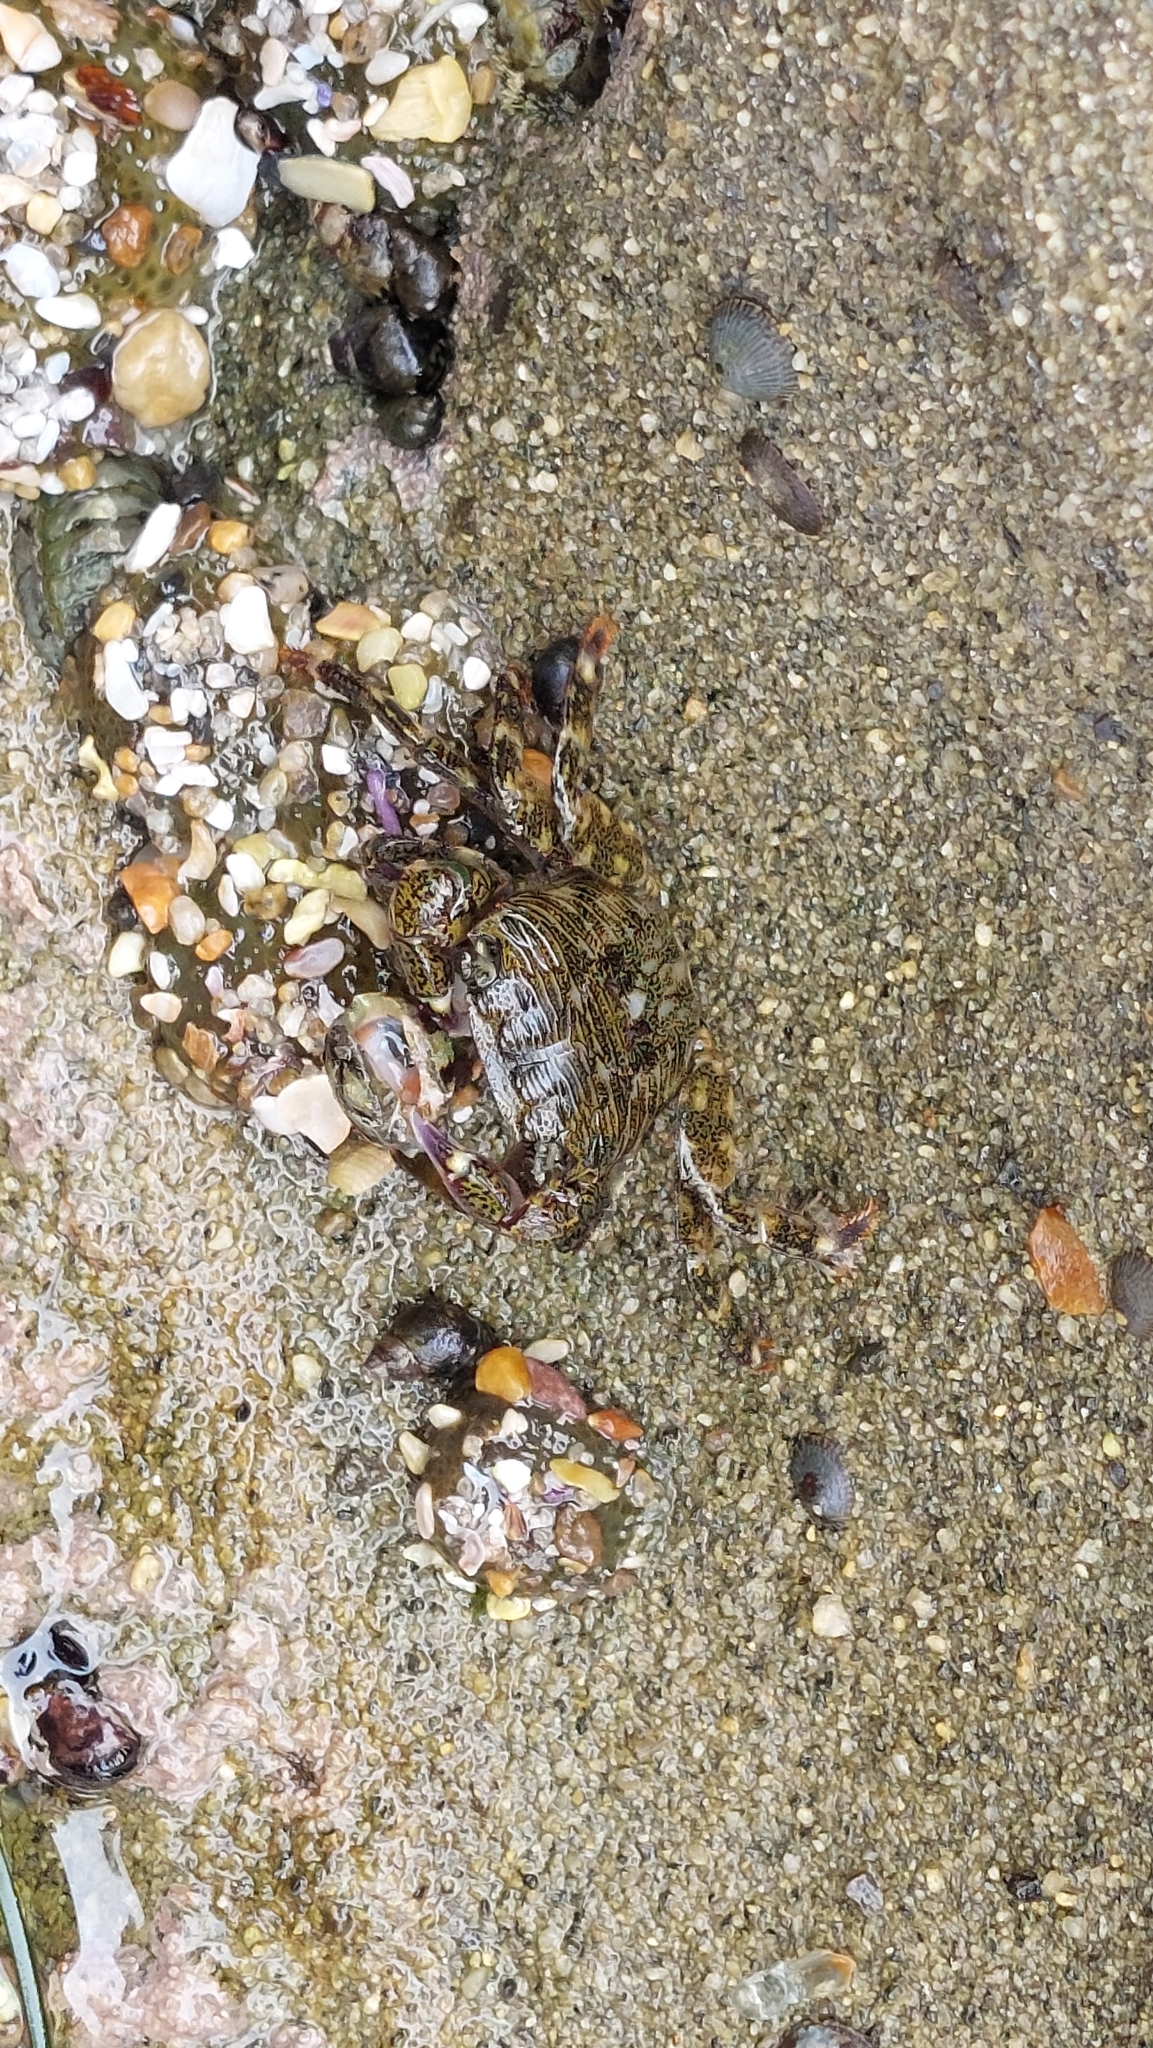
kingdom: Animalia
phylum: Arthropoda
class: Malacostraca
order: Decapoda
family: Grapsidae
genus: Pachygrapsus
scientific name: Pachygrapsus crassipes
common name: Striped shore crab
